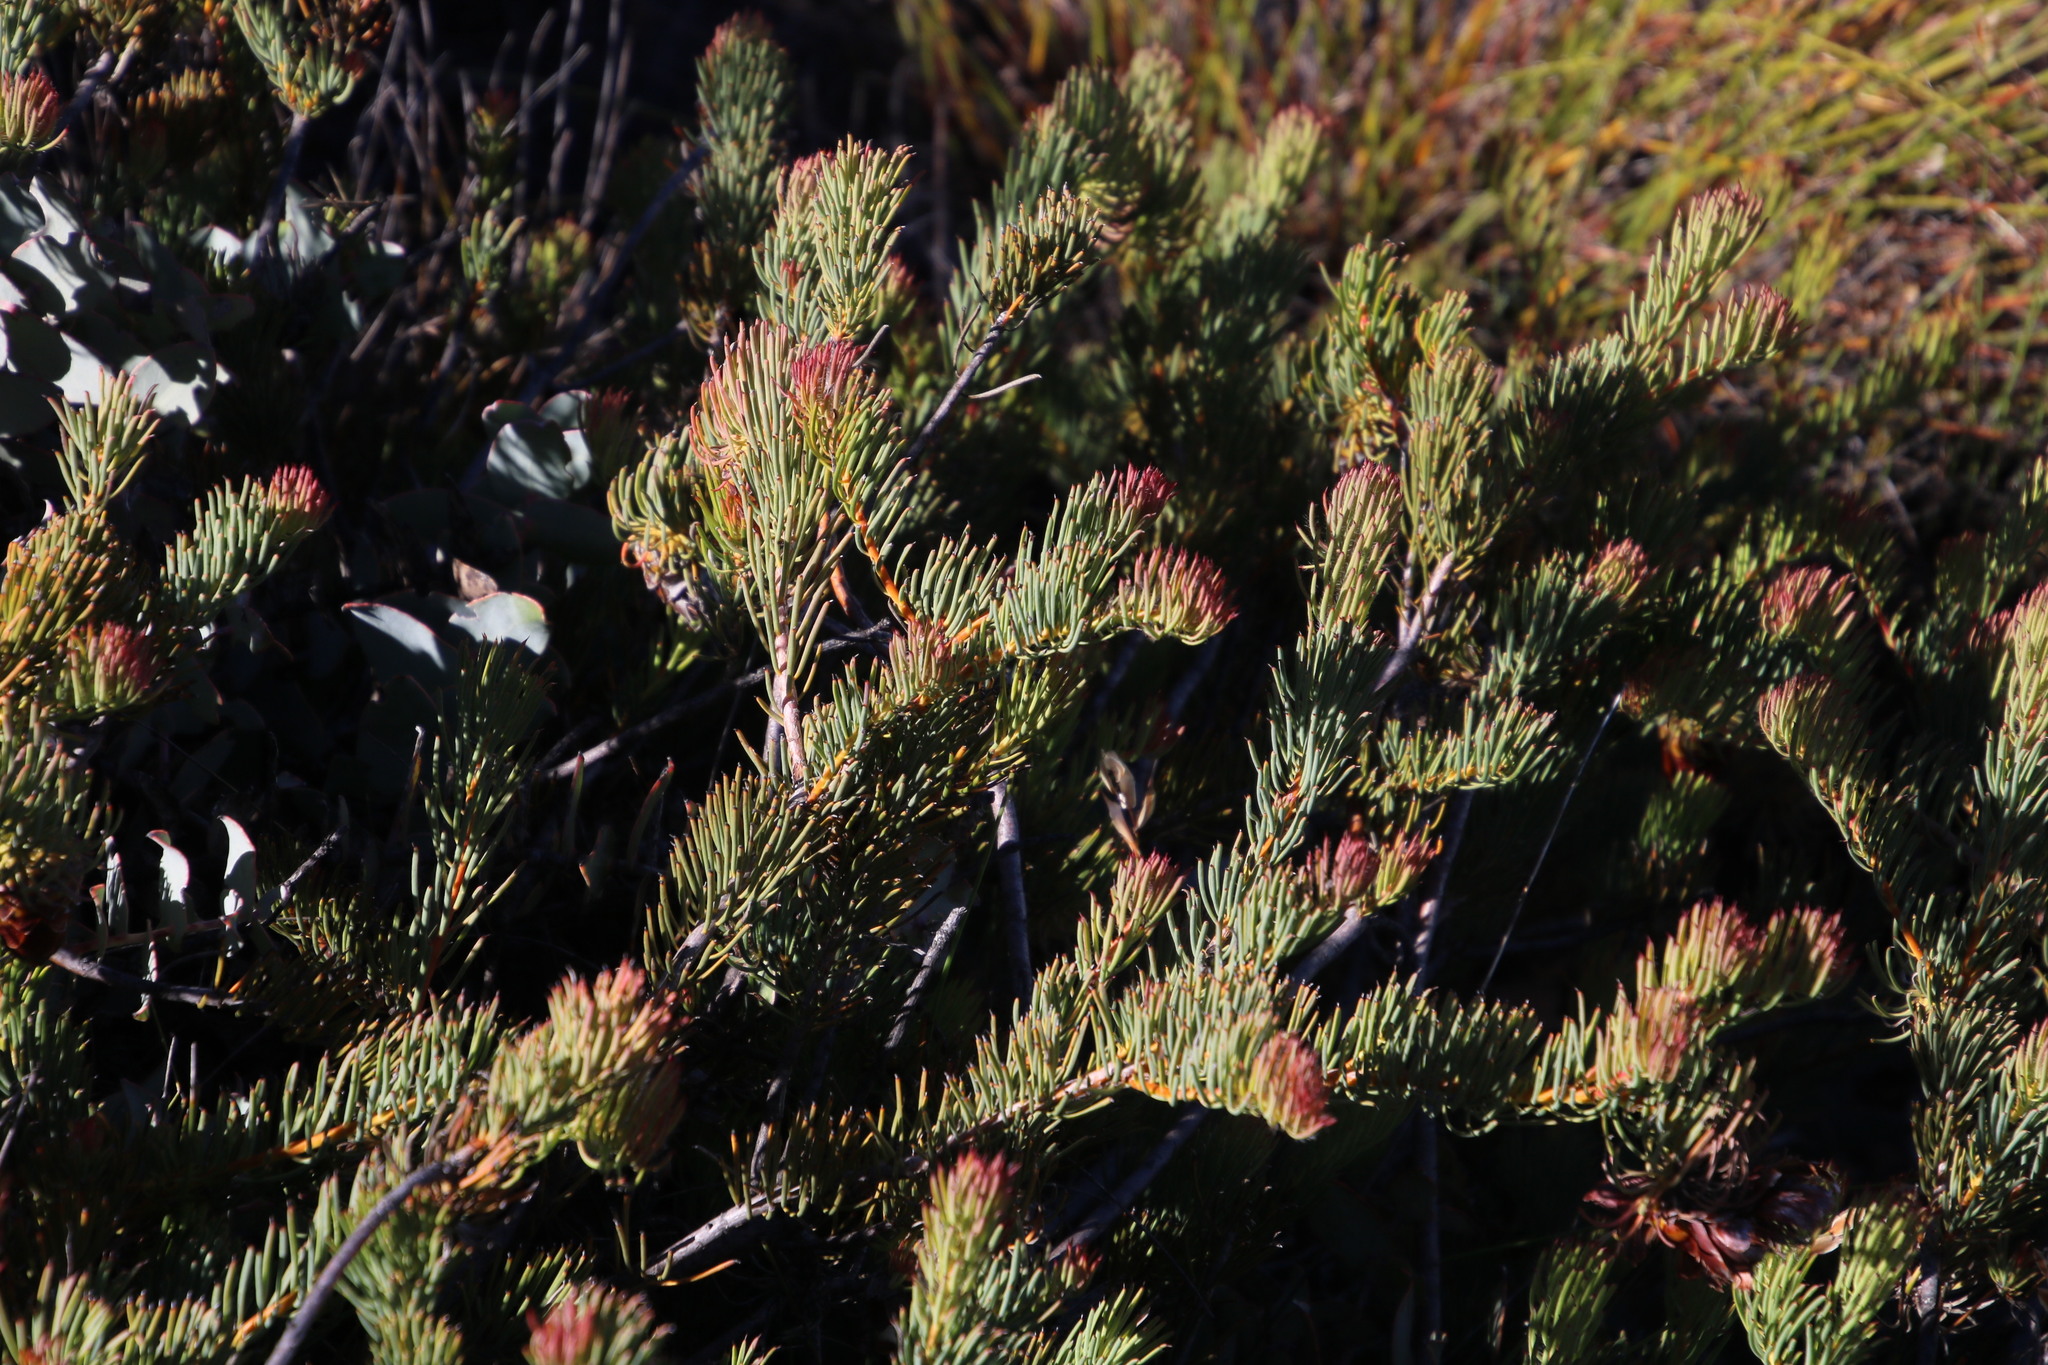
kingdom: Plantae
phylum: Tracheophyta
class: Magnoliopsida
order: Proteales
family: Proteaceae
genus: Protea
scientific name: Protea witzenbergiana
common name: Swan sugarbush
